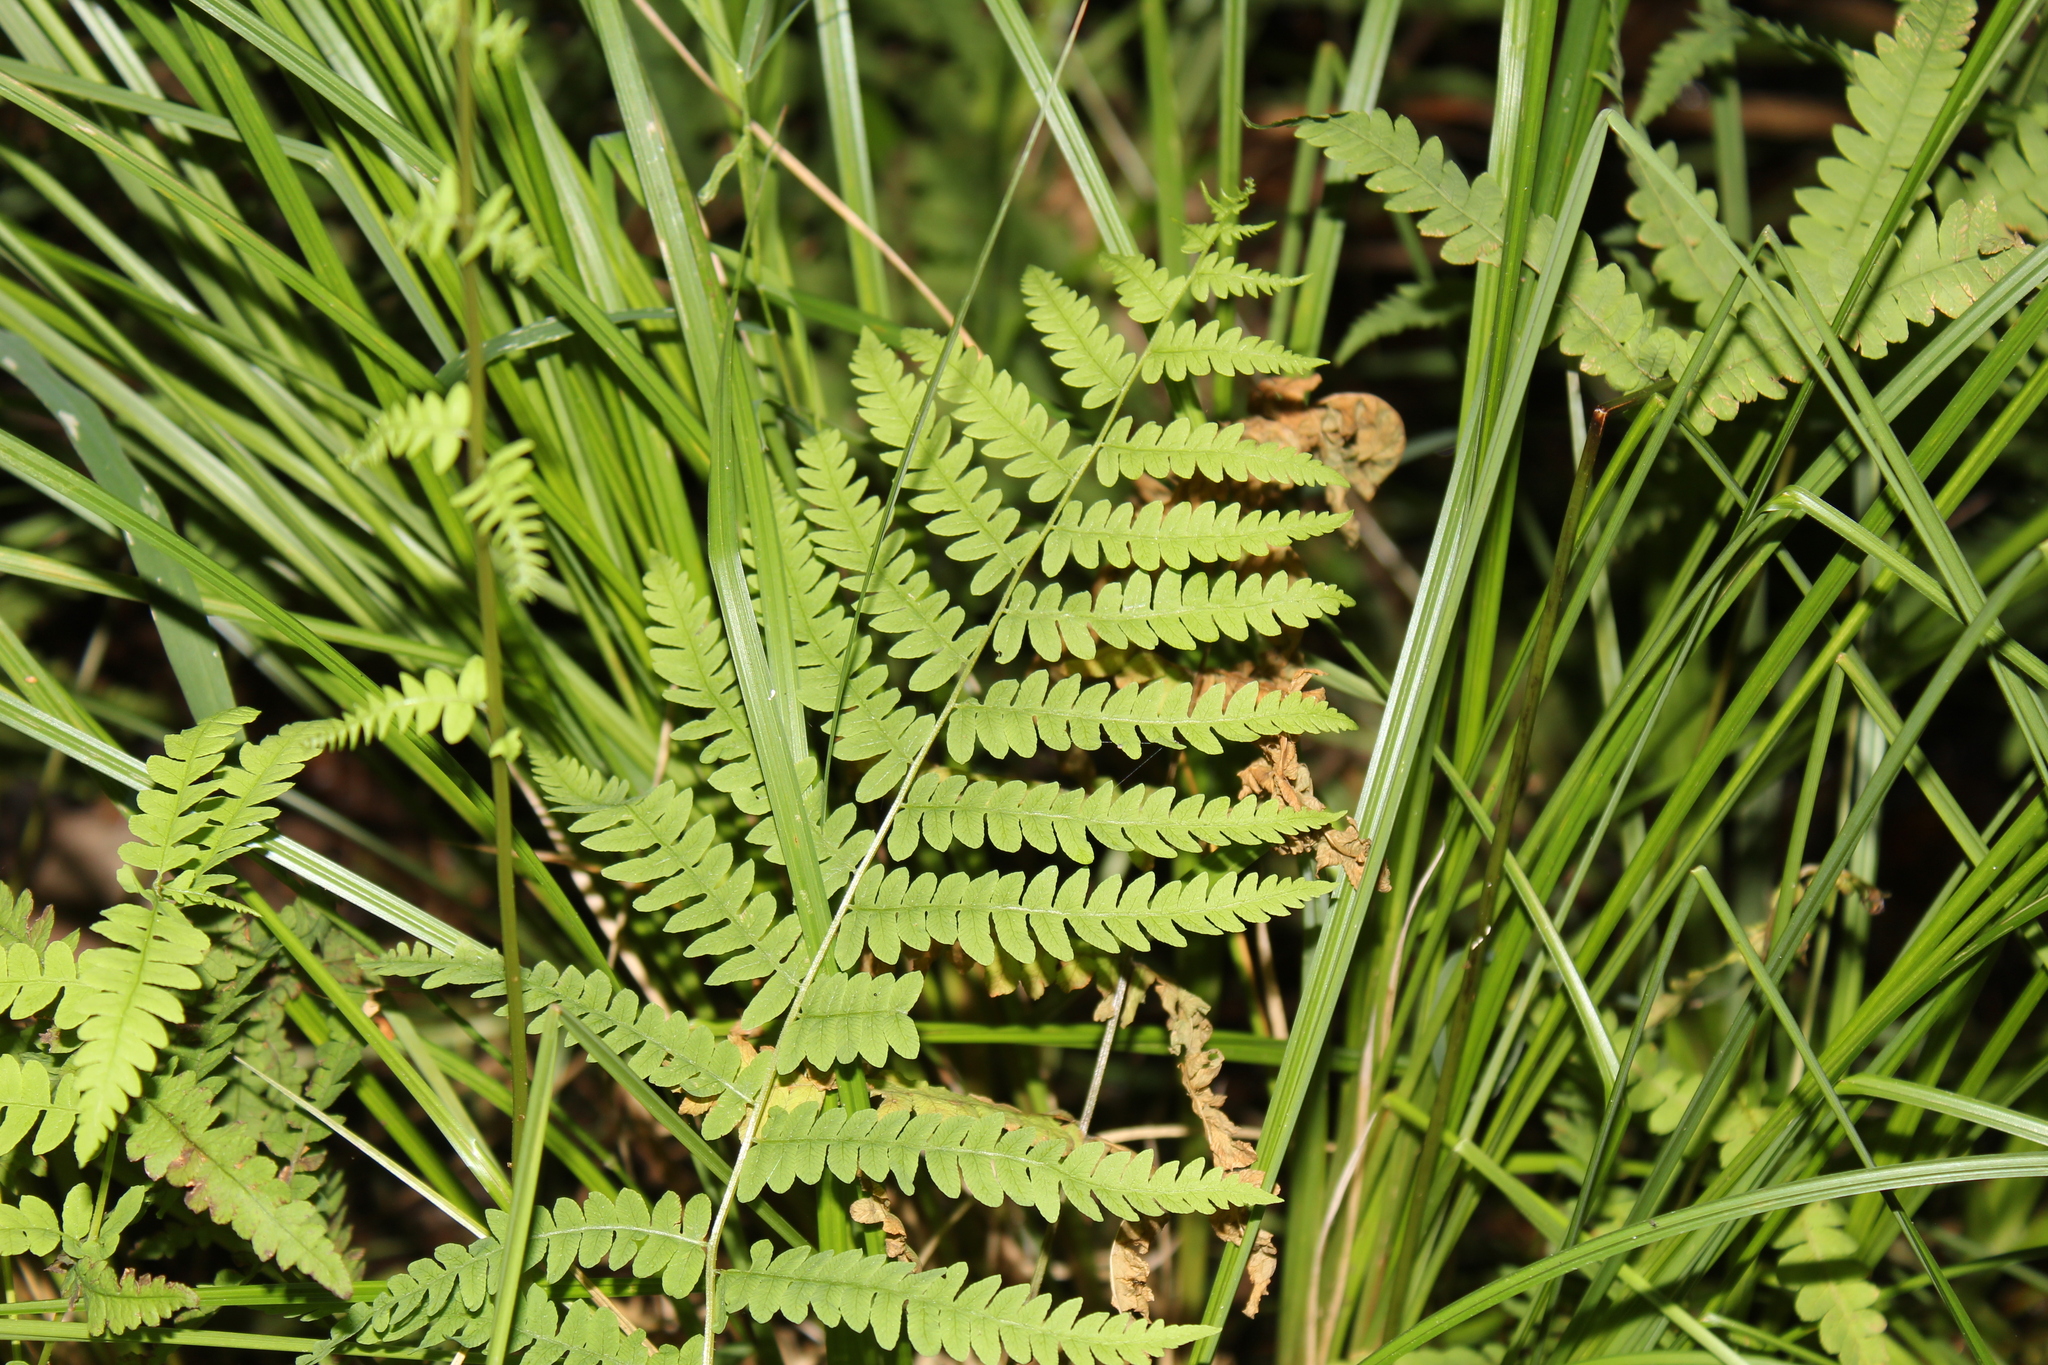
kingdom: Plantae
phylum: Tracheophyta
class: Polypodiopsida
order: Polypodiales
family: Thelypteridaceae
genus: Thelypteris
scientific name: Thelypteris palustris
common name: Marsh fern
